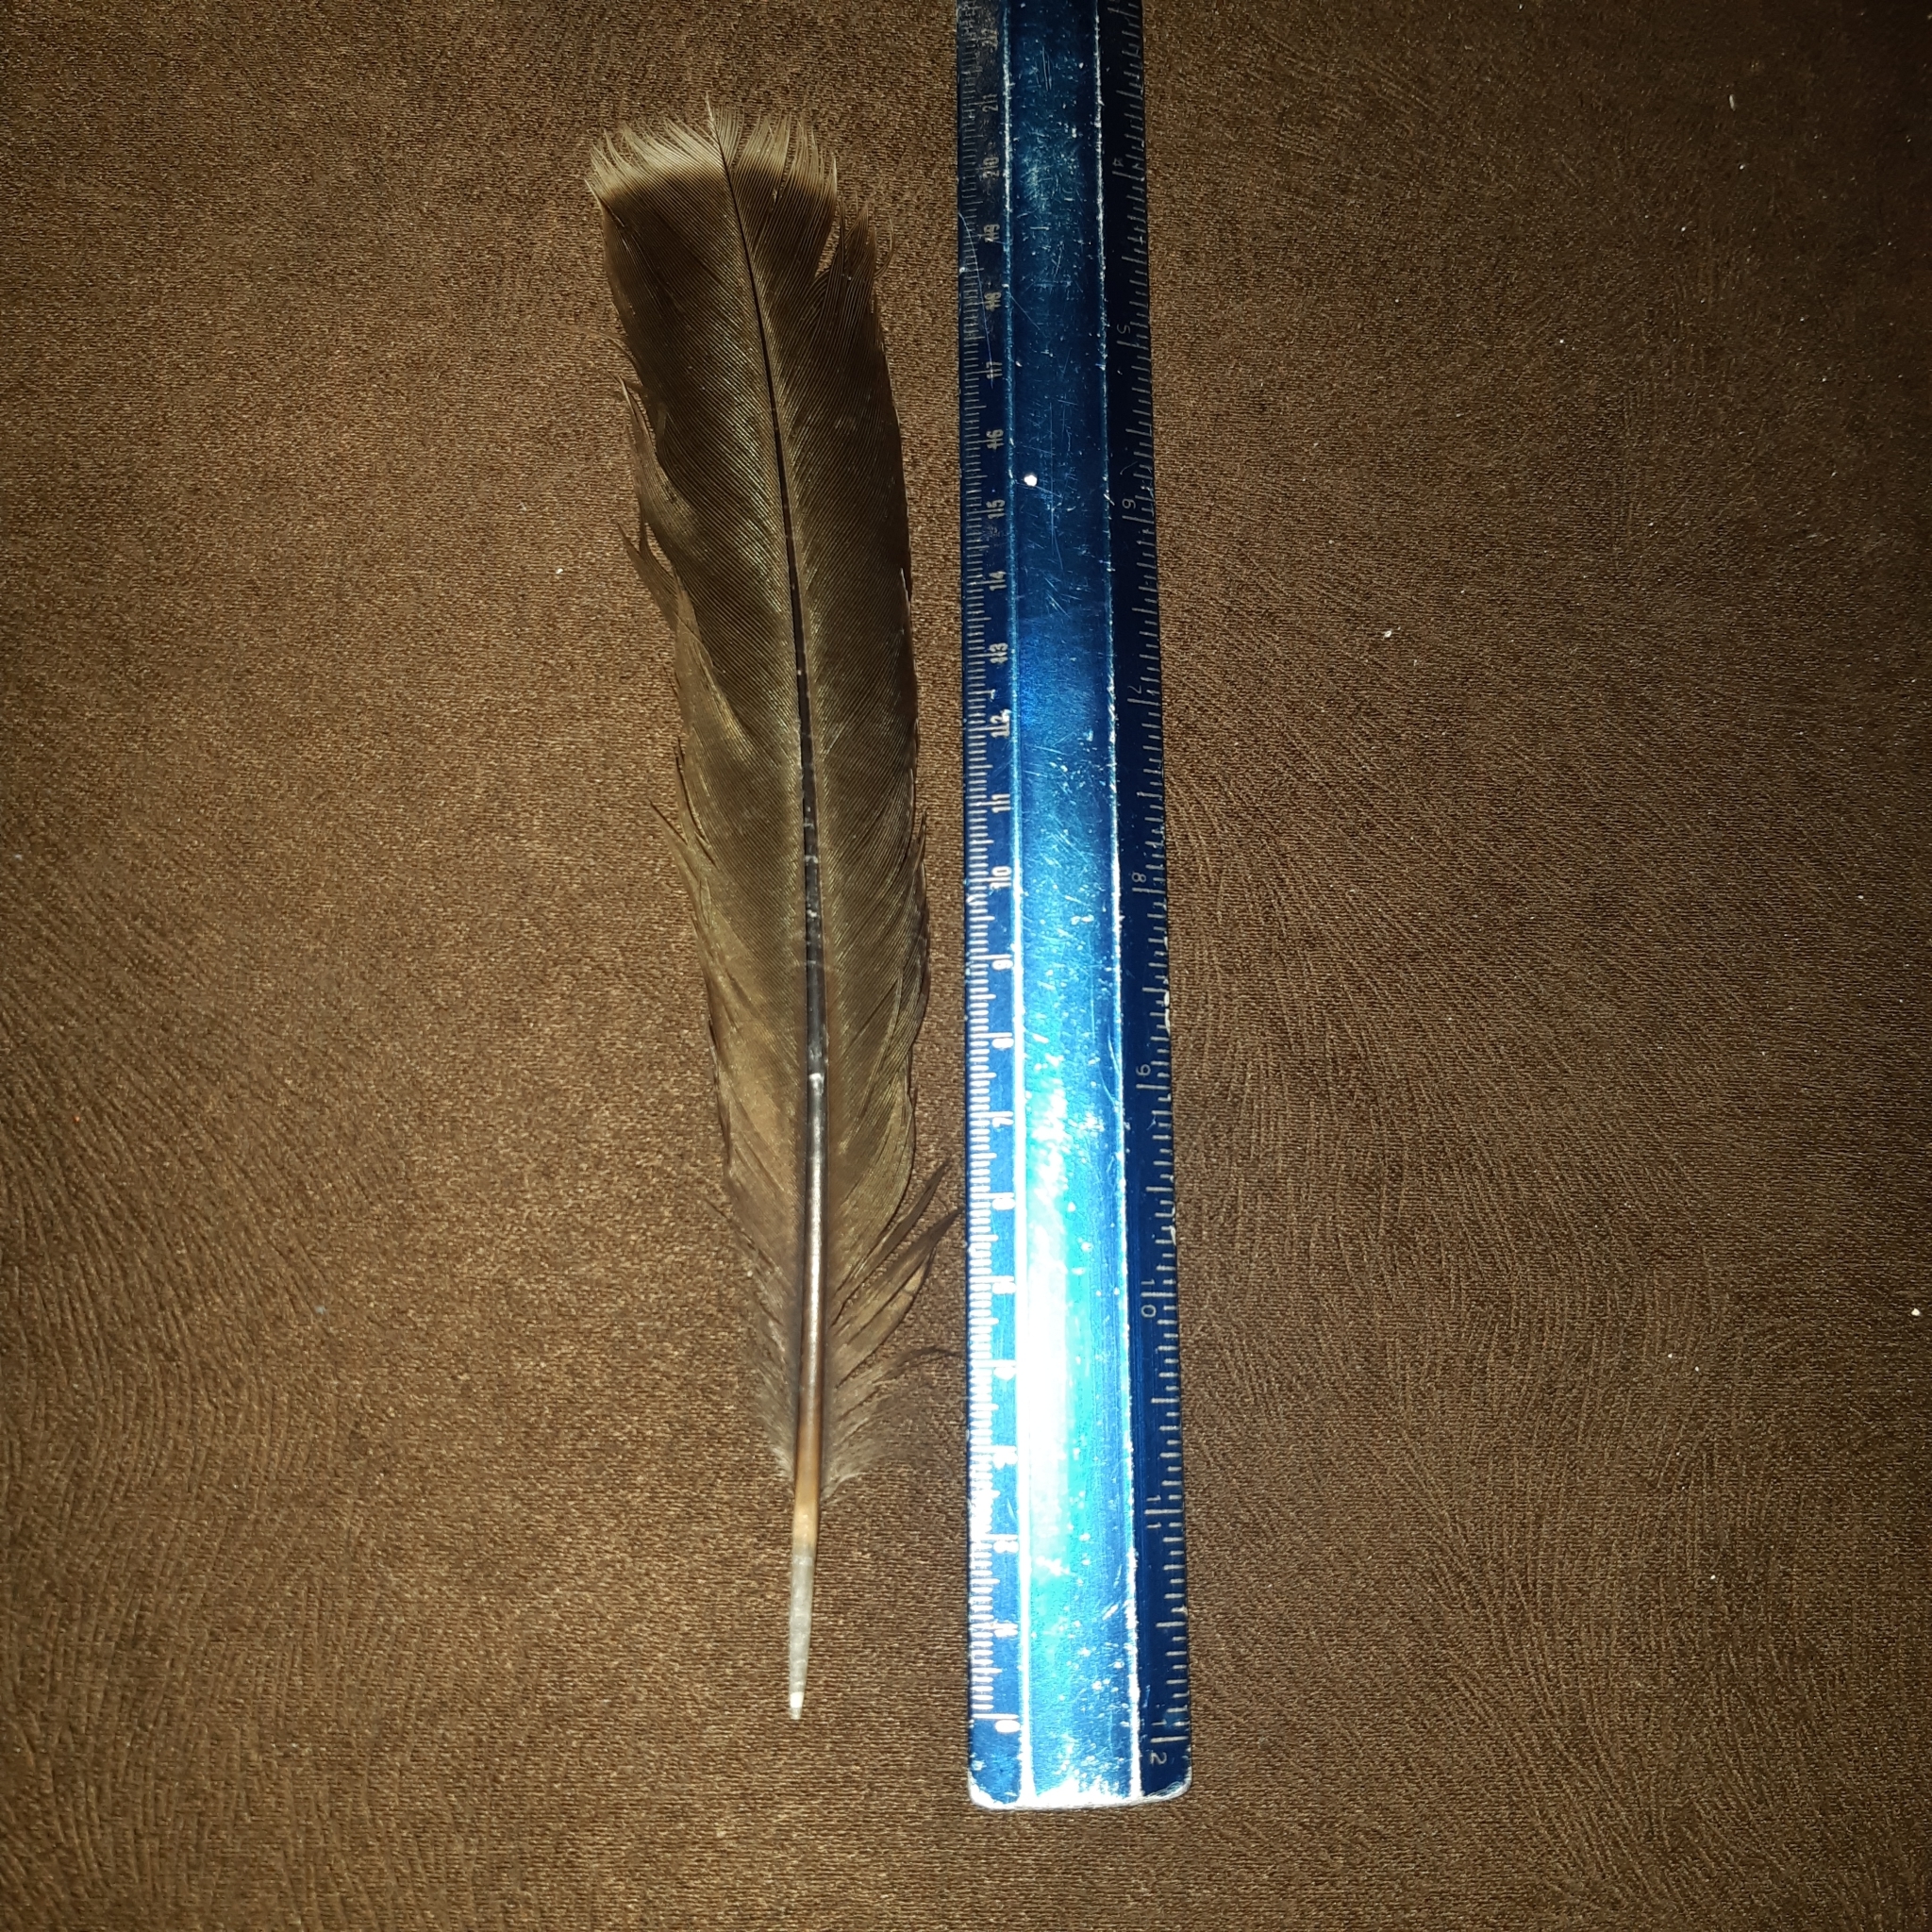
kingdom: Animalia
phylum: Chordata
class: Aves
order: Galliformes
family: Cracidae
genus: Ortalis
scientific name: Ortalis leucogastra
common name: White-bellied chachalaca
